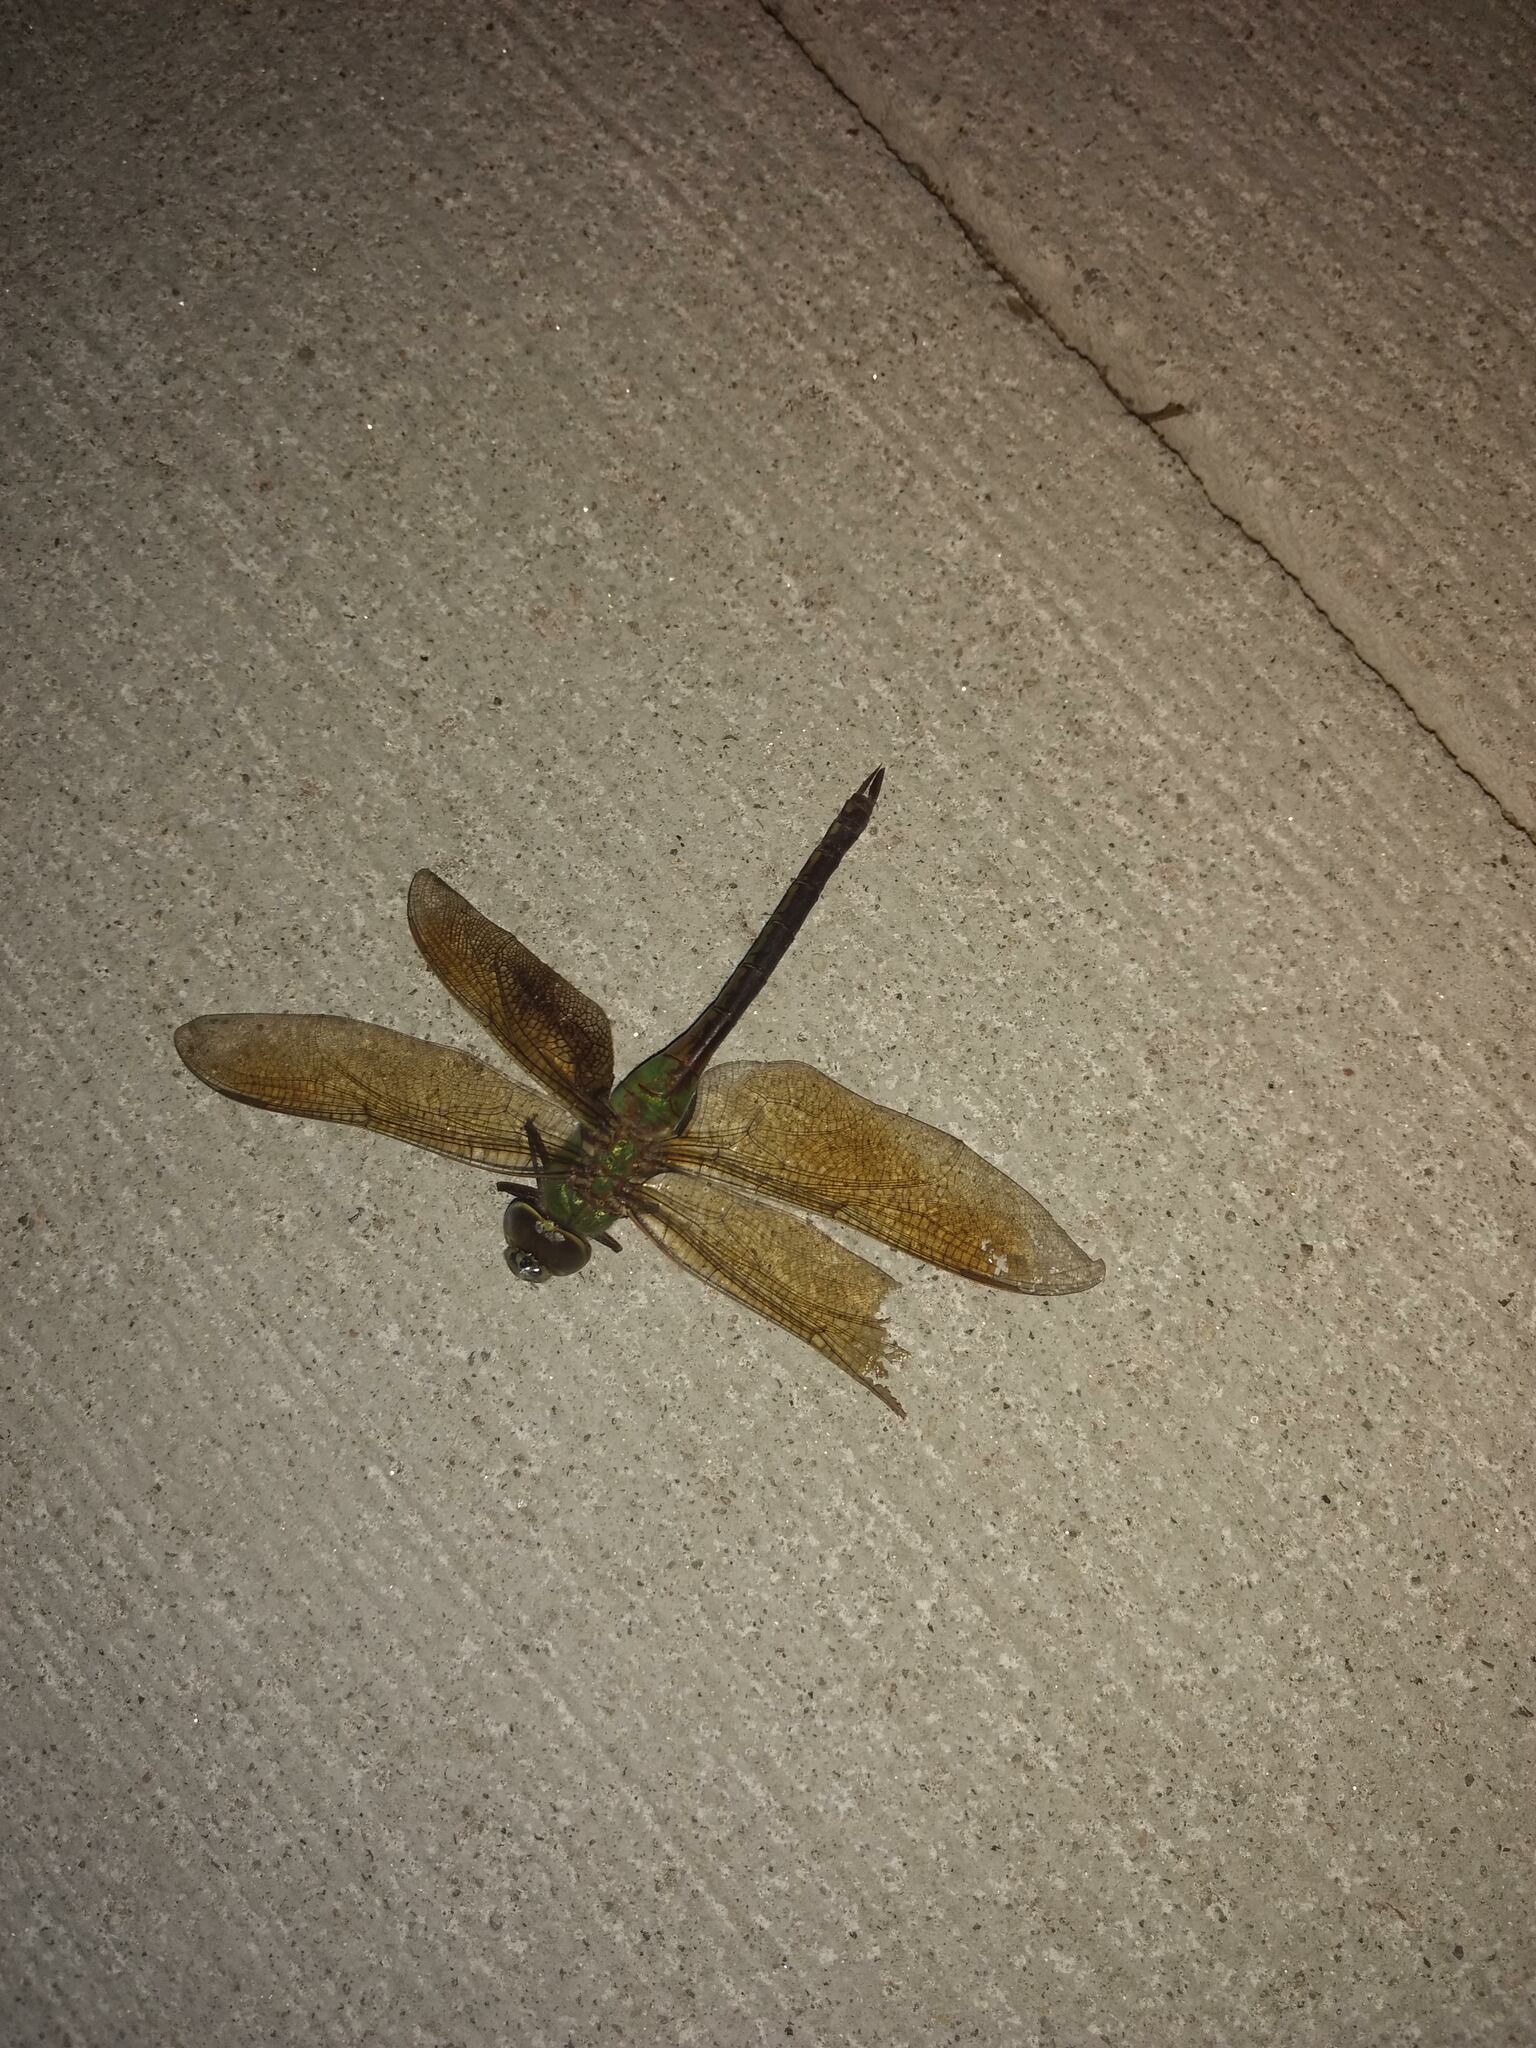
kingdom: Animalia
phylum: Arthropoda
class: Insecta
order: Odonata
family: Aeshnidae
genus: Anax
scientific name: Anax junius
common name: Common green darner
